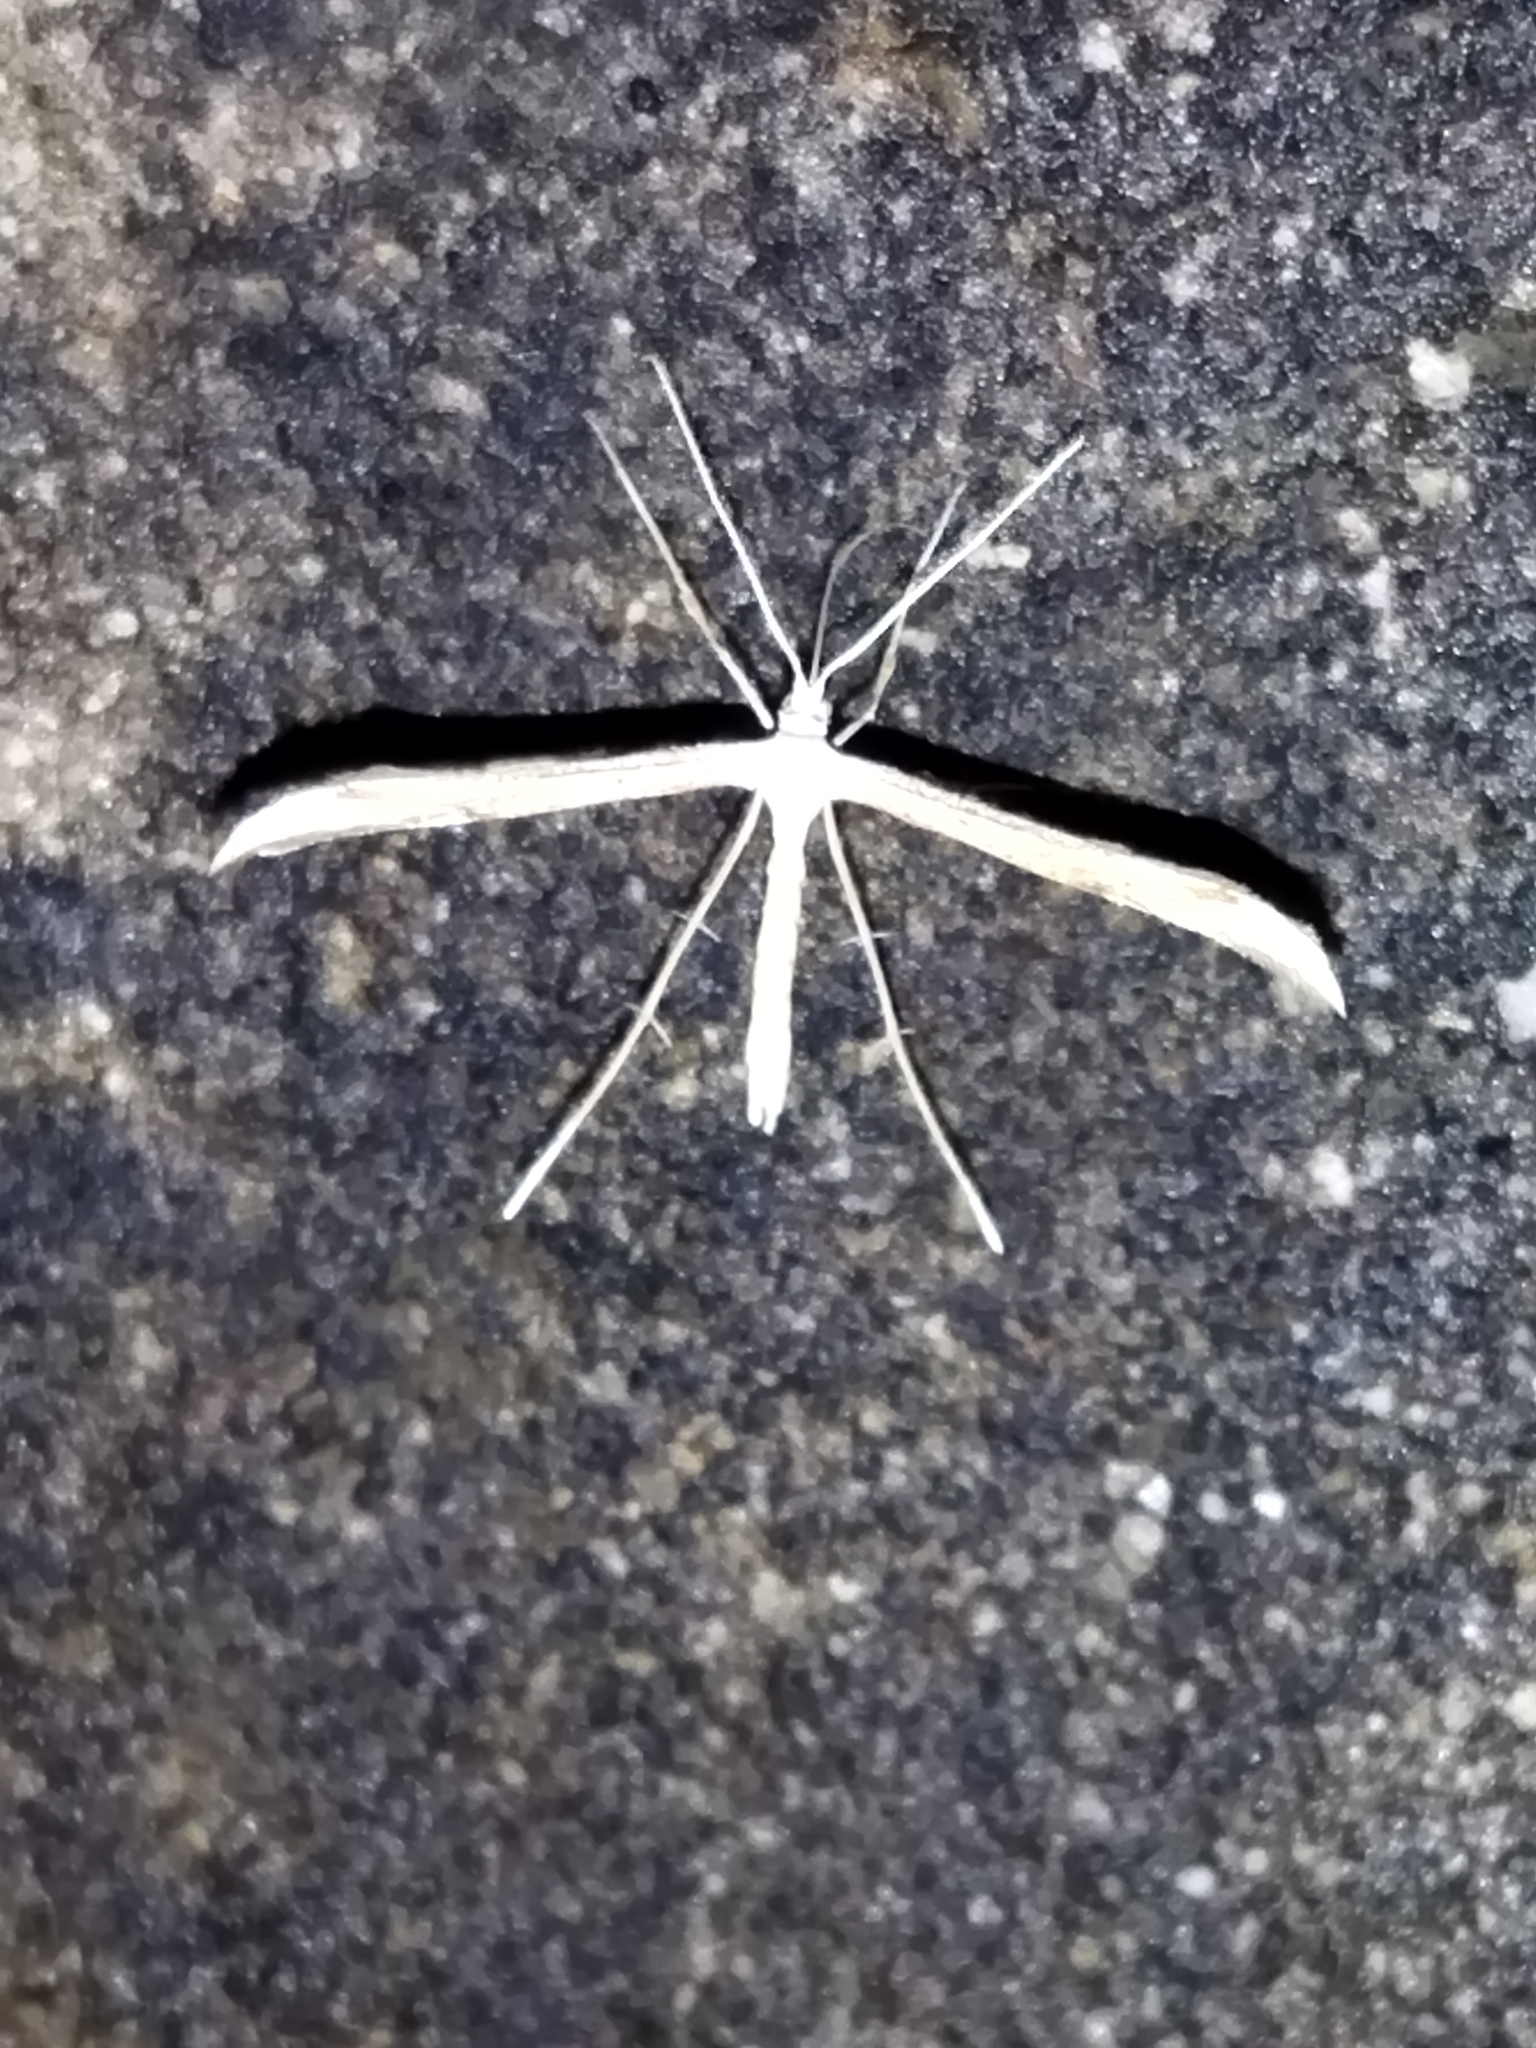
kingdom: Animalia
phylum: Arthropoda
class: Insecta
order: Lepidoptera
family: Pterophoridae
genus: Emmelina
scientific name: Emmelina monodactyla
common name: Common plume
